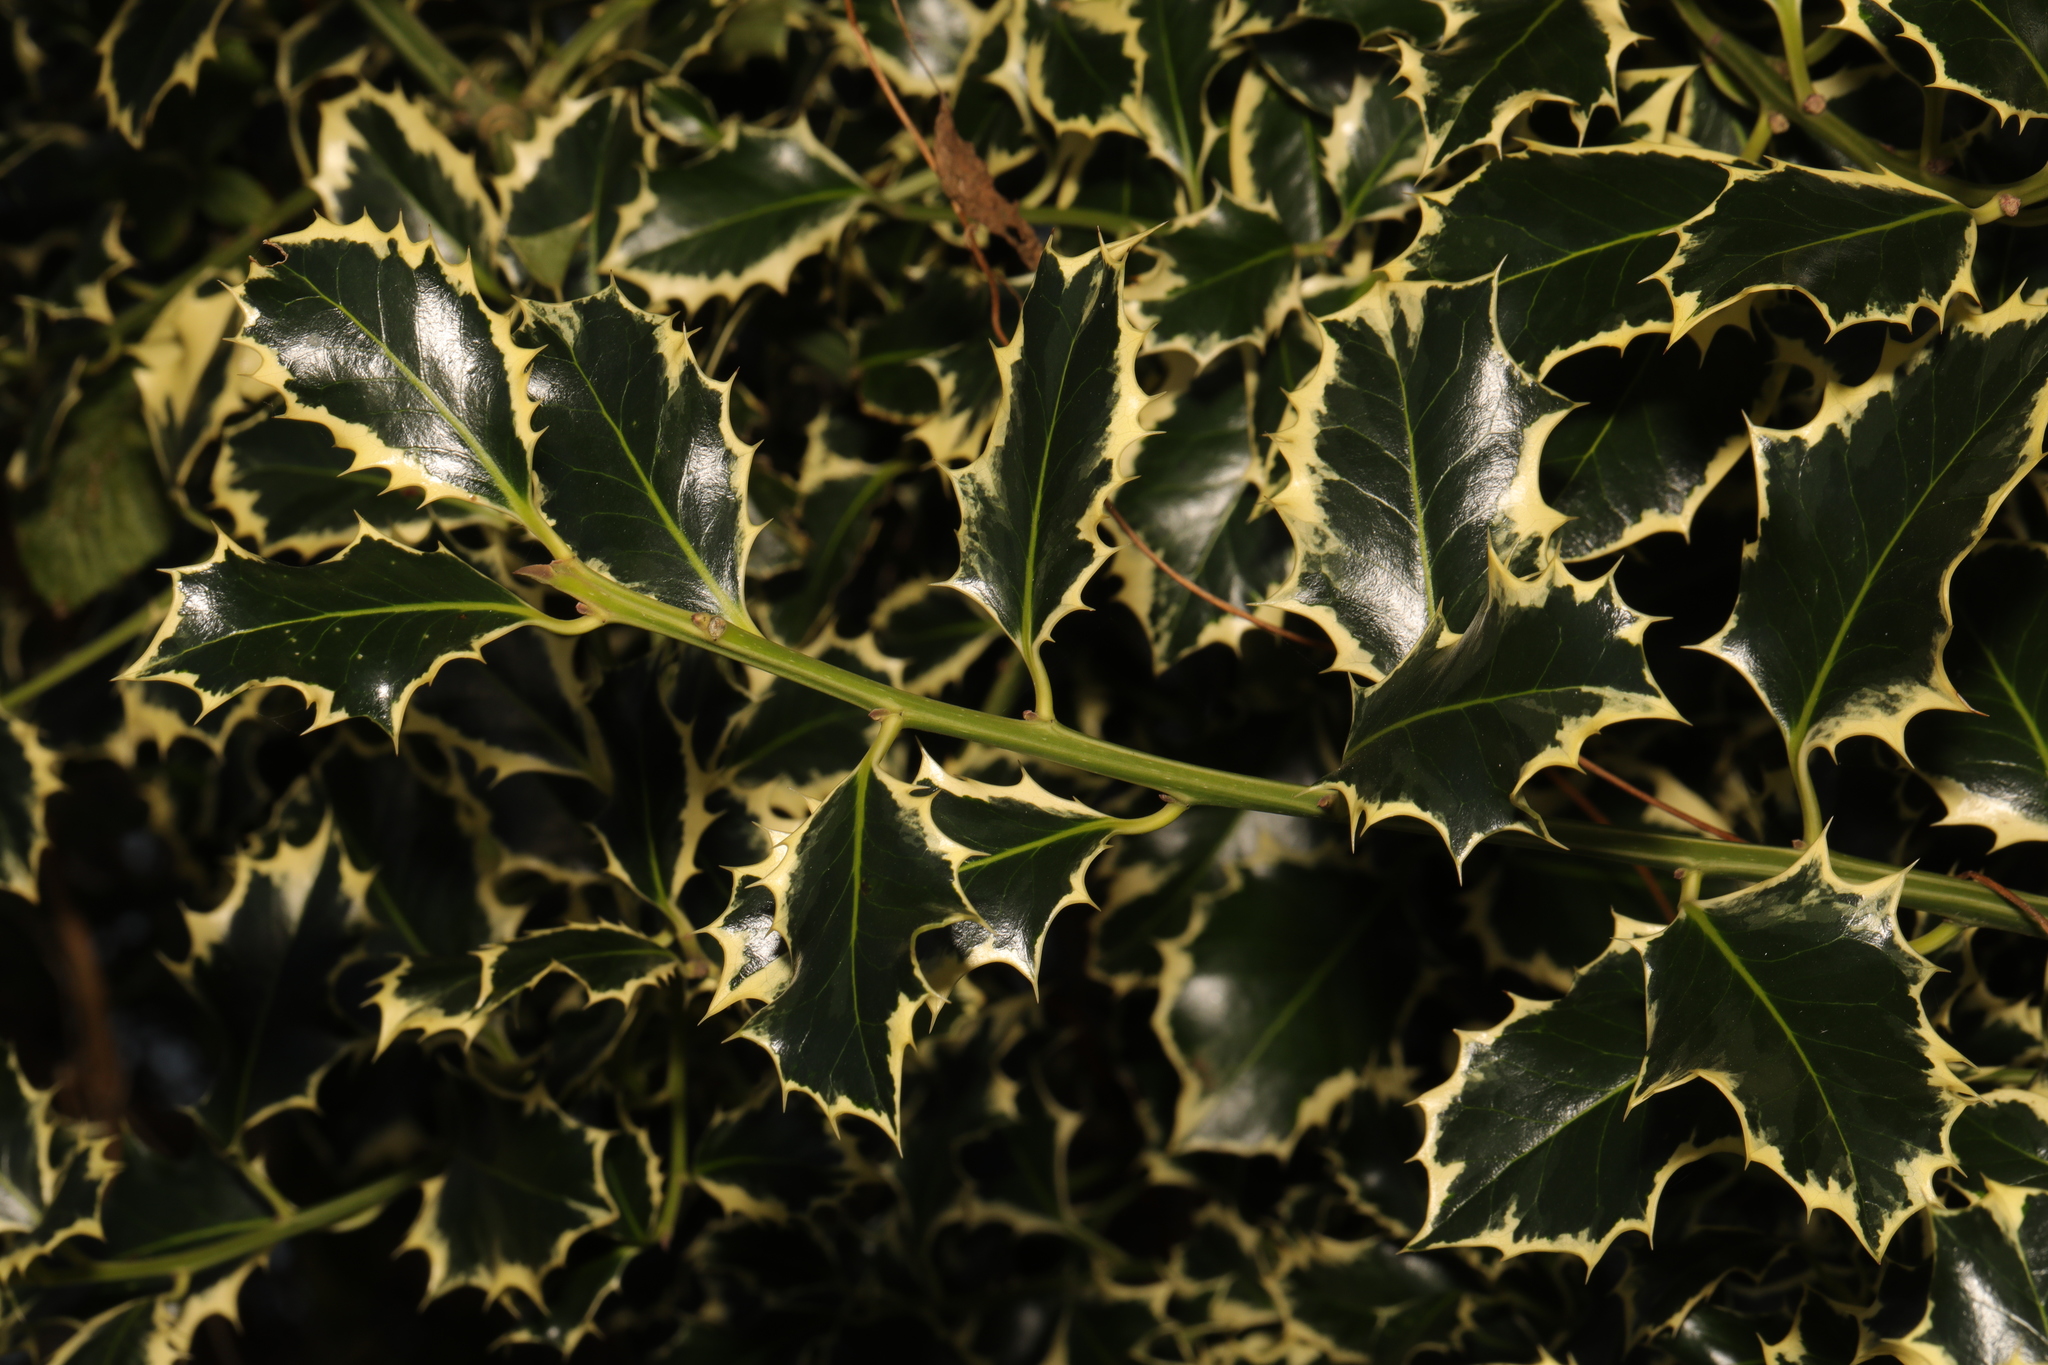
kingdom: Plantae
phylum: Tracheophyta
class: Magnoliopsida
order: Aquifoliales
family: Aquifoliaceae
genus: Ilex
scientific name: Ilex aquifolium
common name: English holly
